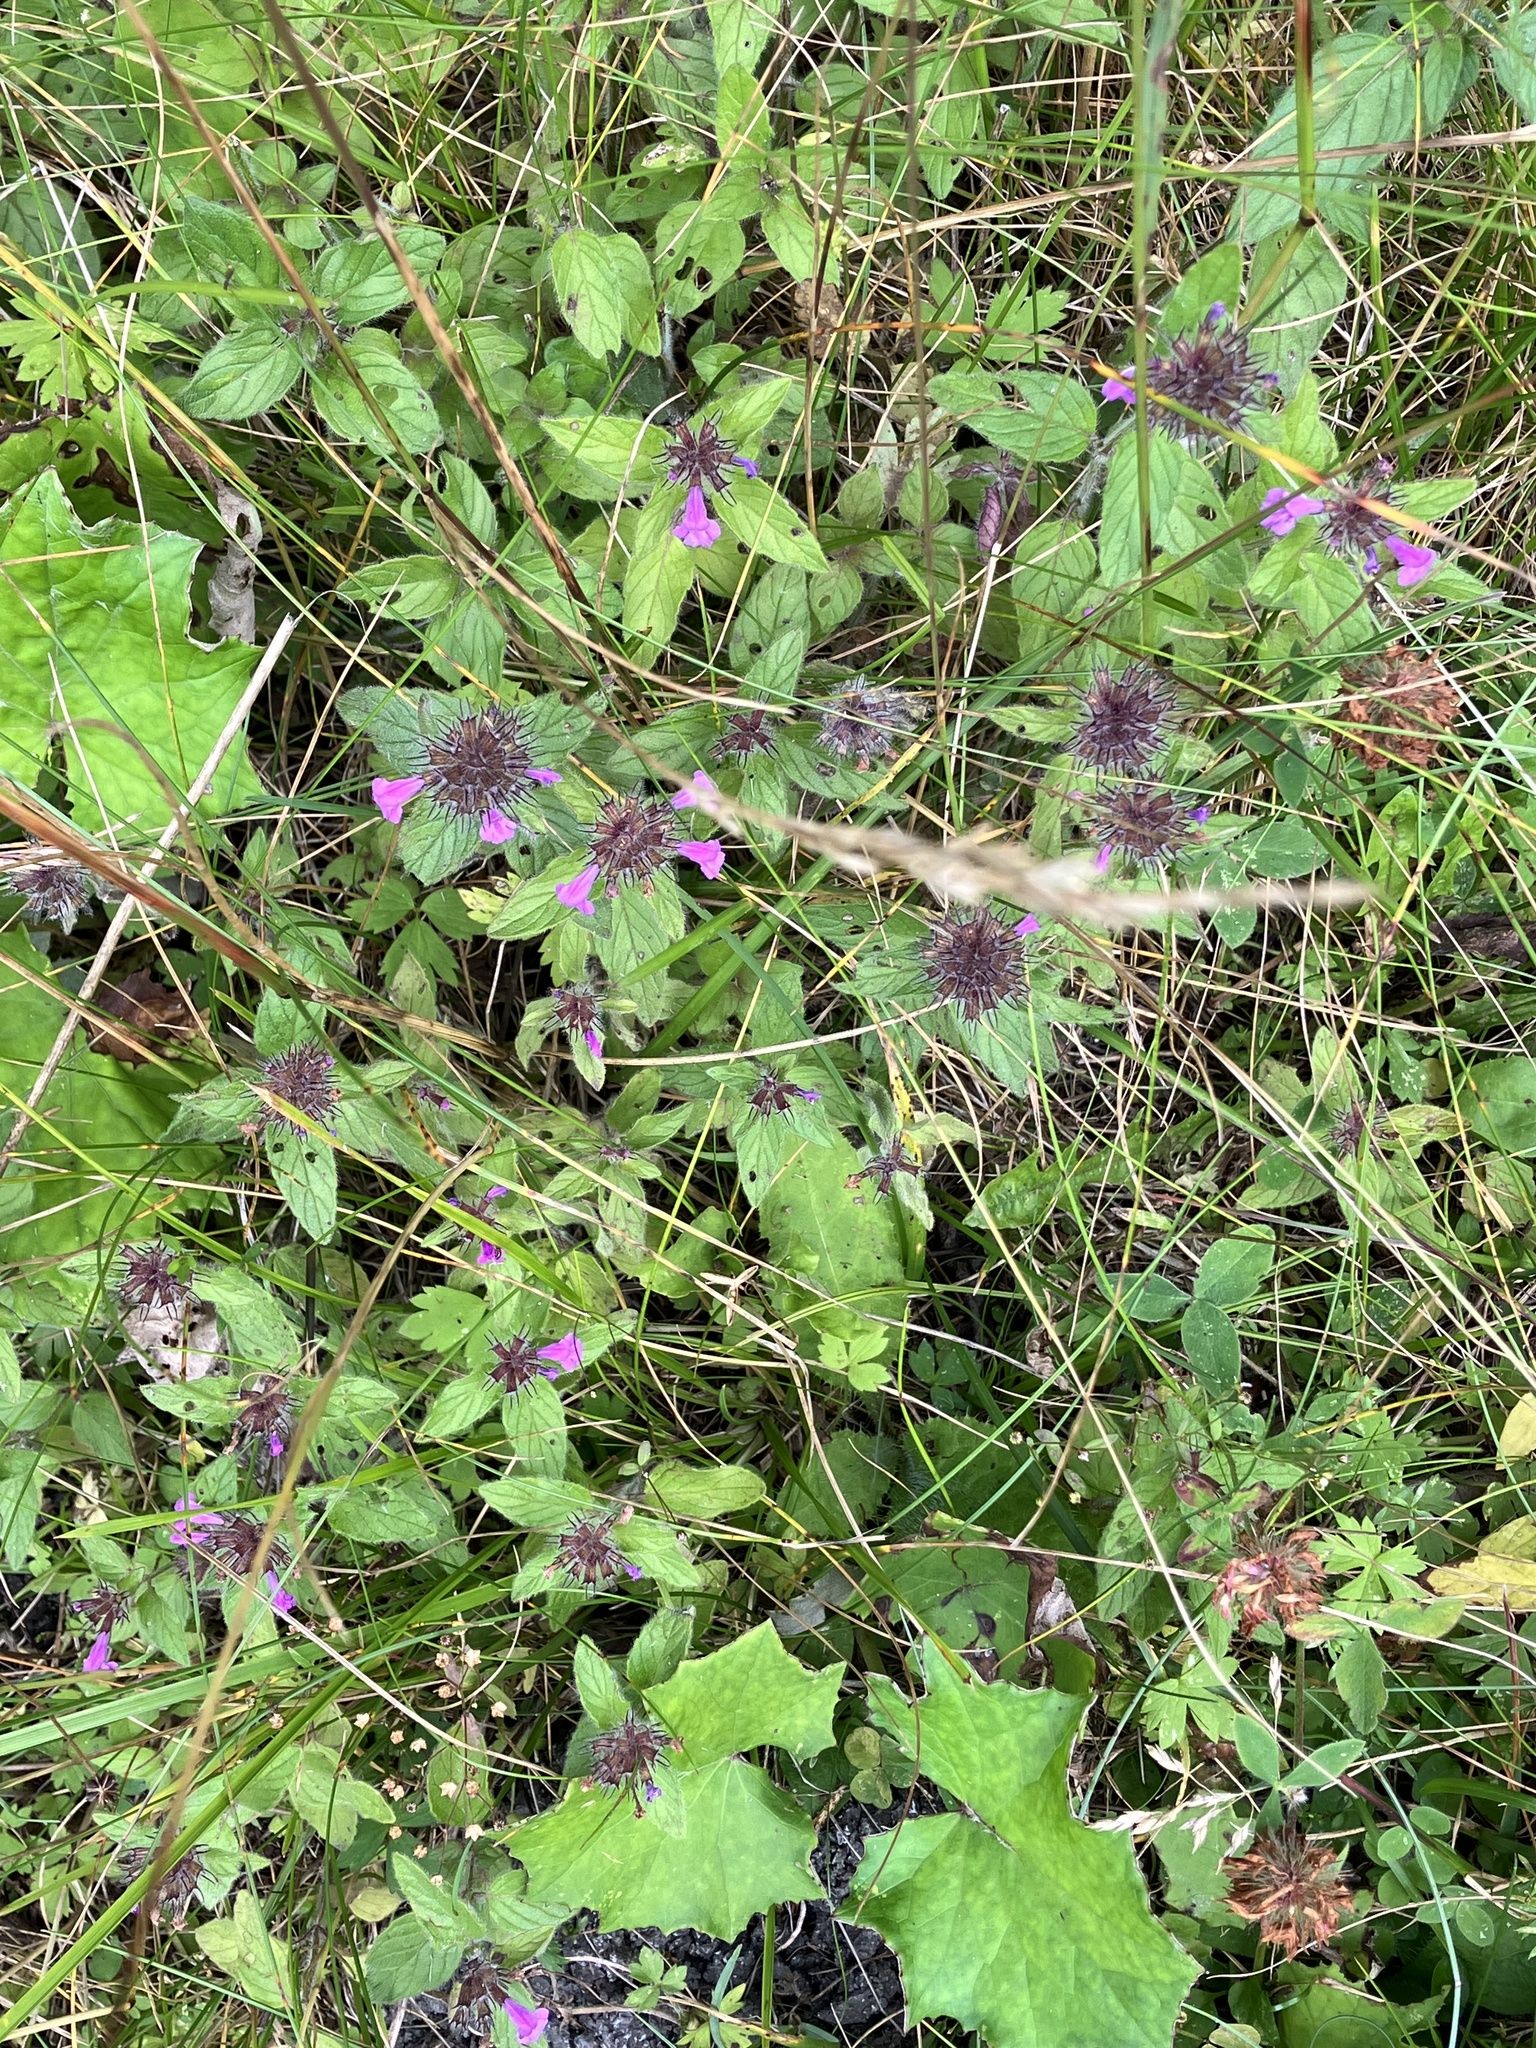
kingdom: Plantae
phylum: Tracheophyta
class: Magnoliopsida
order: Lamiales
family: Lamiaceae
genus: Clinopodium
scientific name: Clinopodium vulgare
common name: Wild basil
